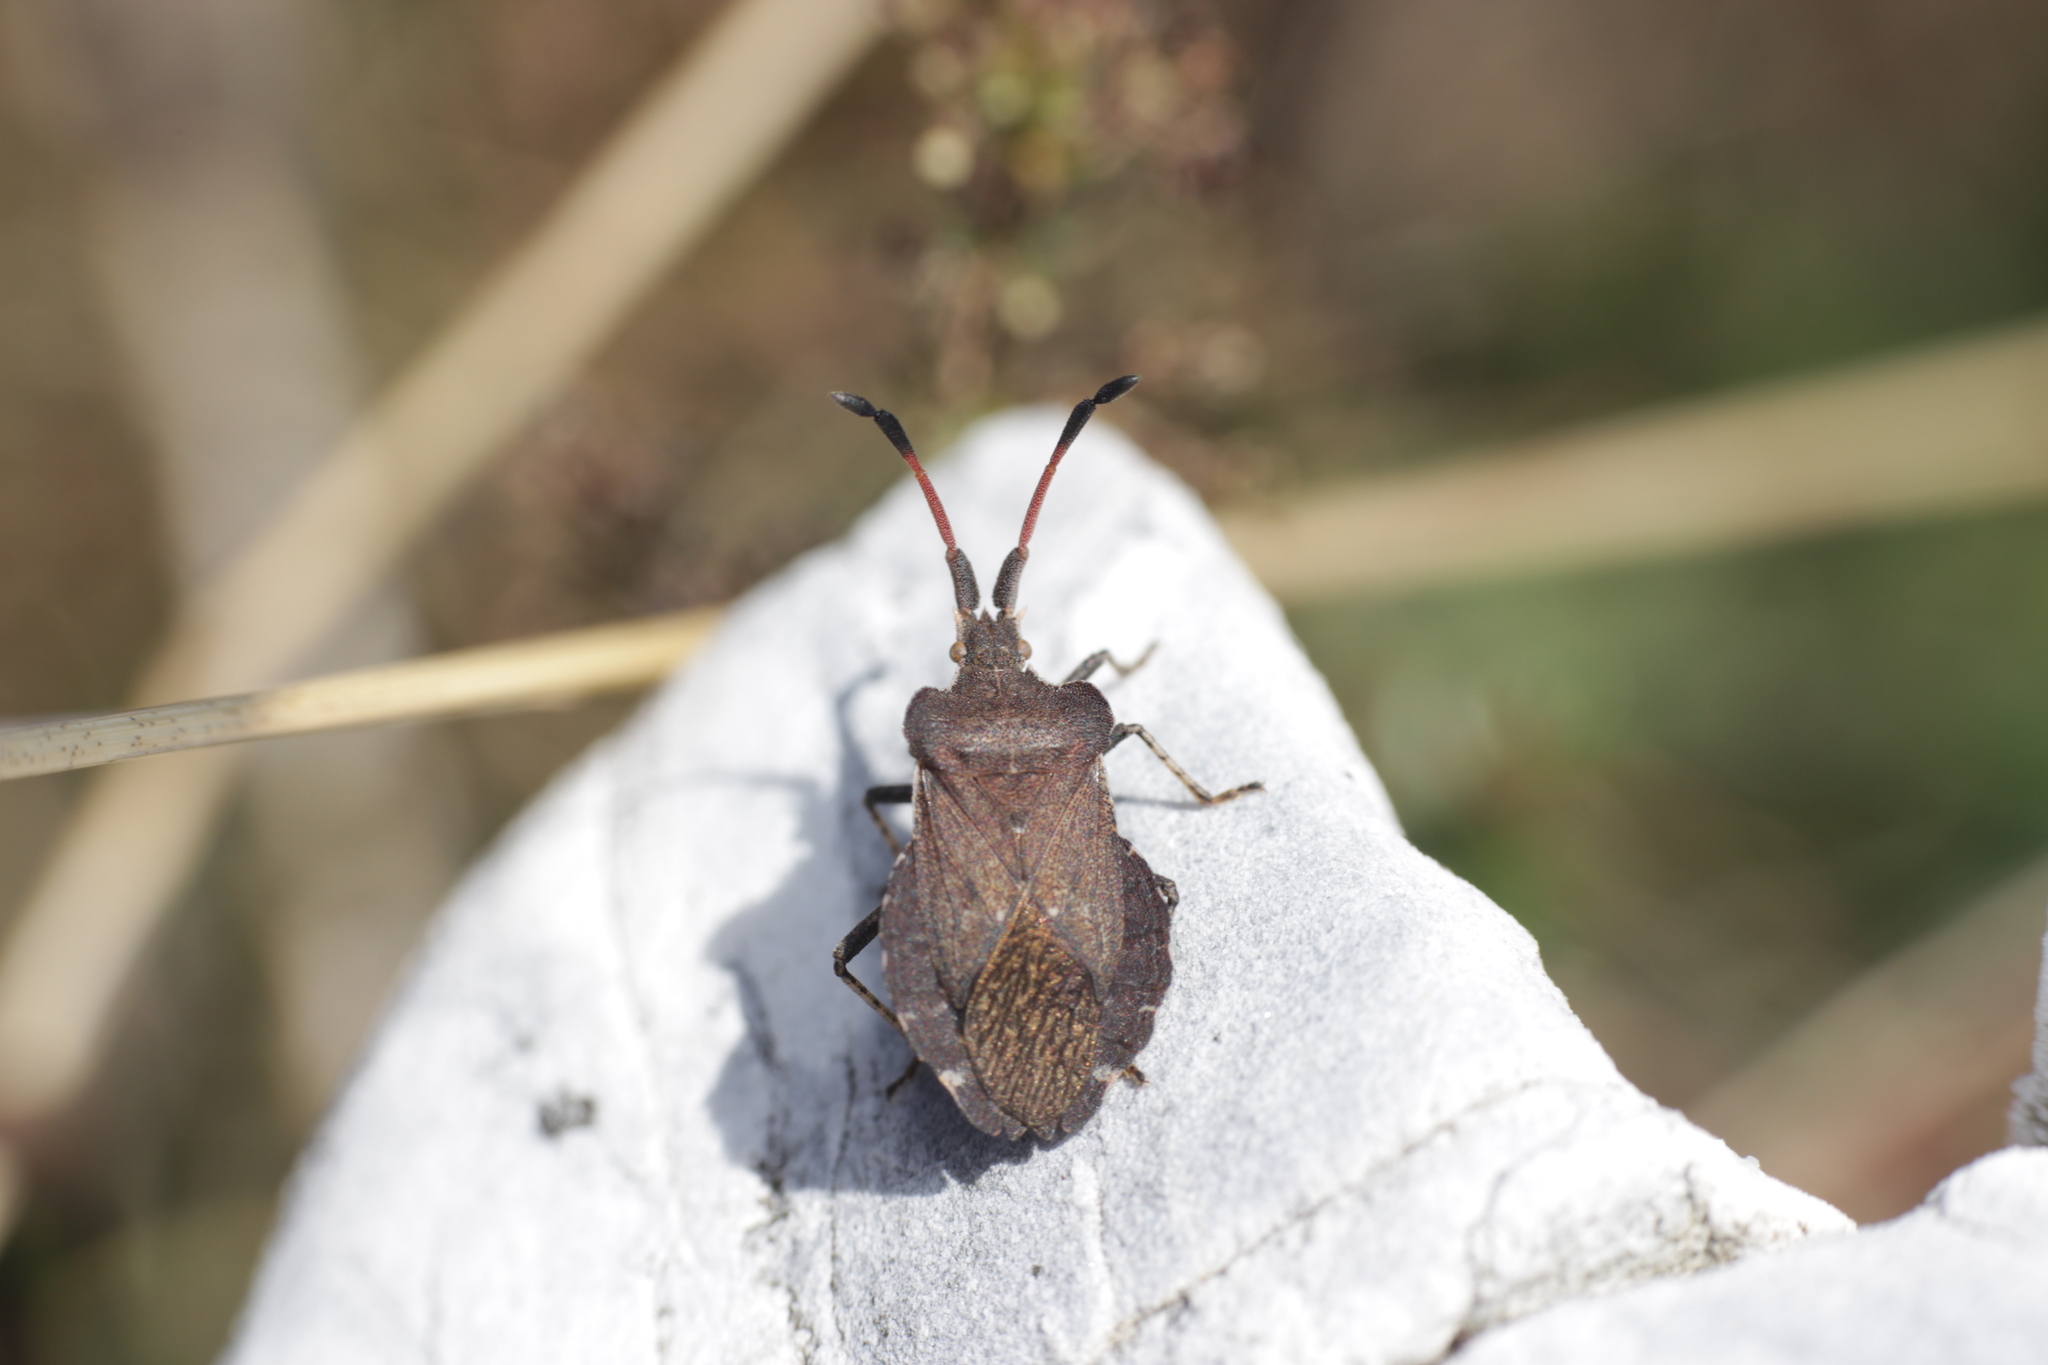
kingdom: Animalia
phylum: Arthropoda
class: Insecta
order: Hemiptera
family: Coreidae
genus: Enoplops
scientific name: Enoplops scapha
